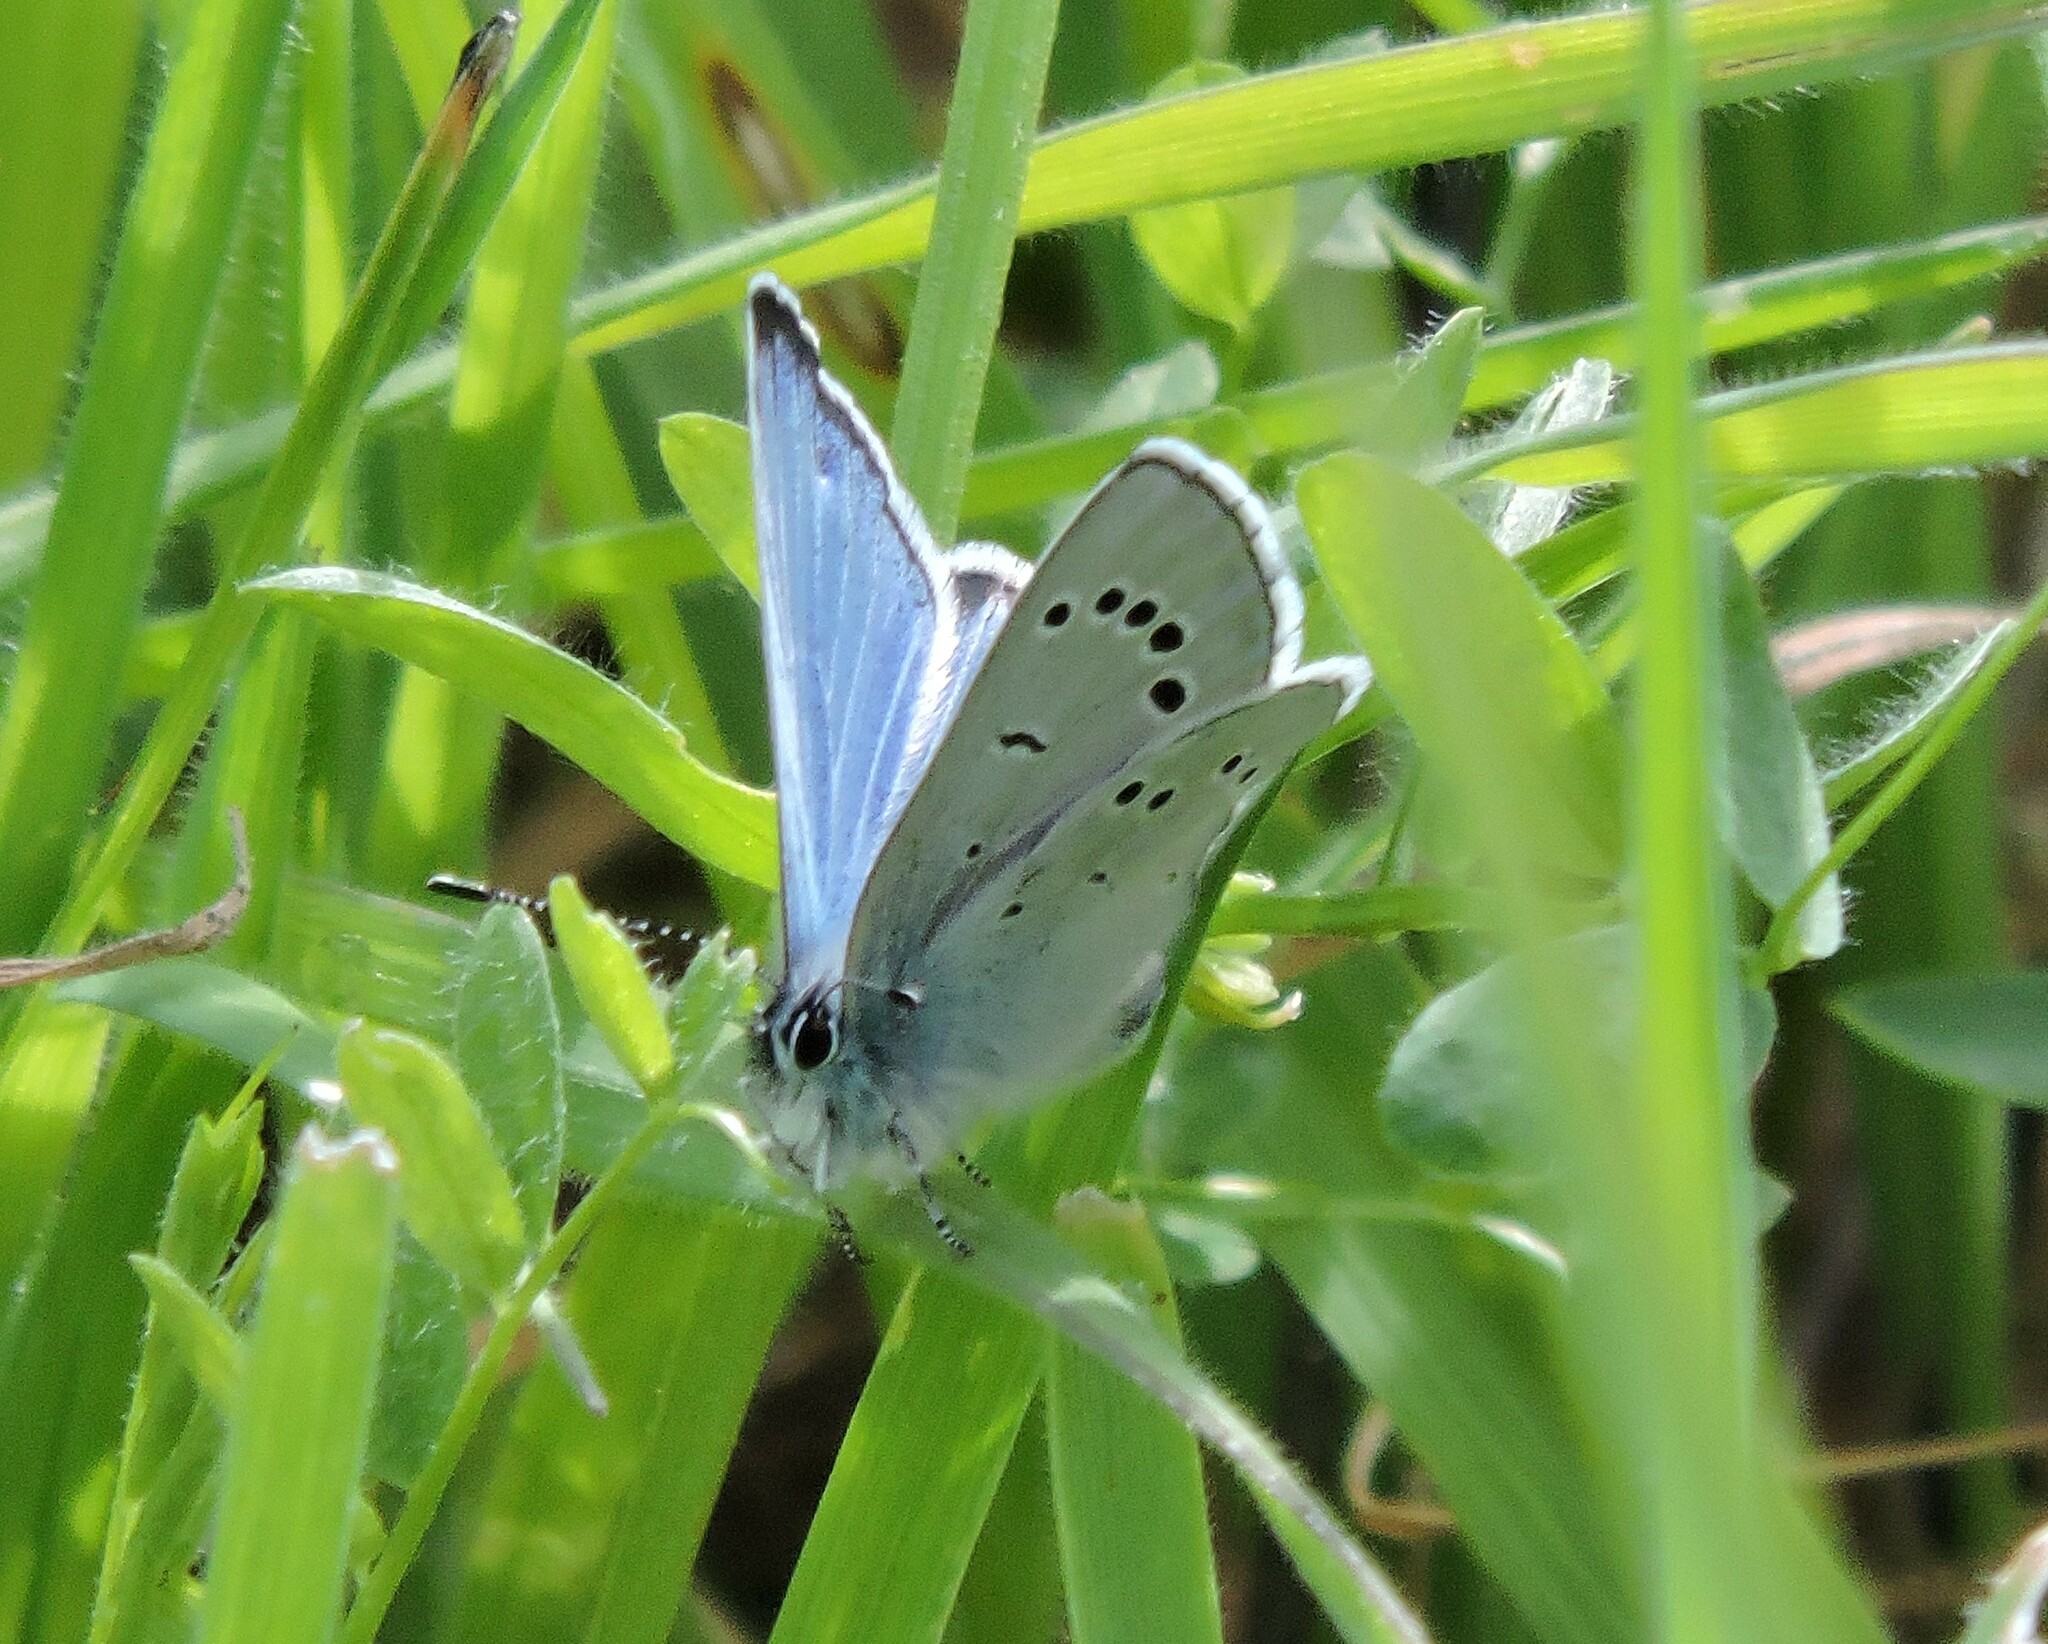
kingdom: Animalia
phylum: Arthropoda
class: Insecta
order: Lepidoptera
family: Lycaenidae
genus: Glaucopsyche
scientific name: Glaucopsyche lygdamus
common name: Silvery blue
